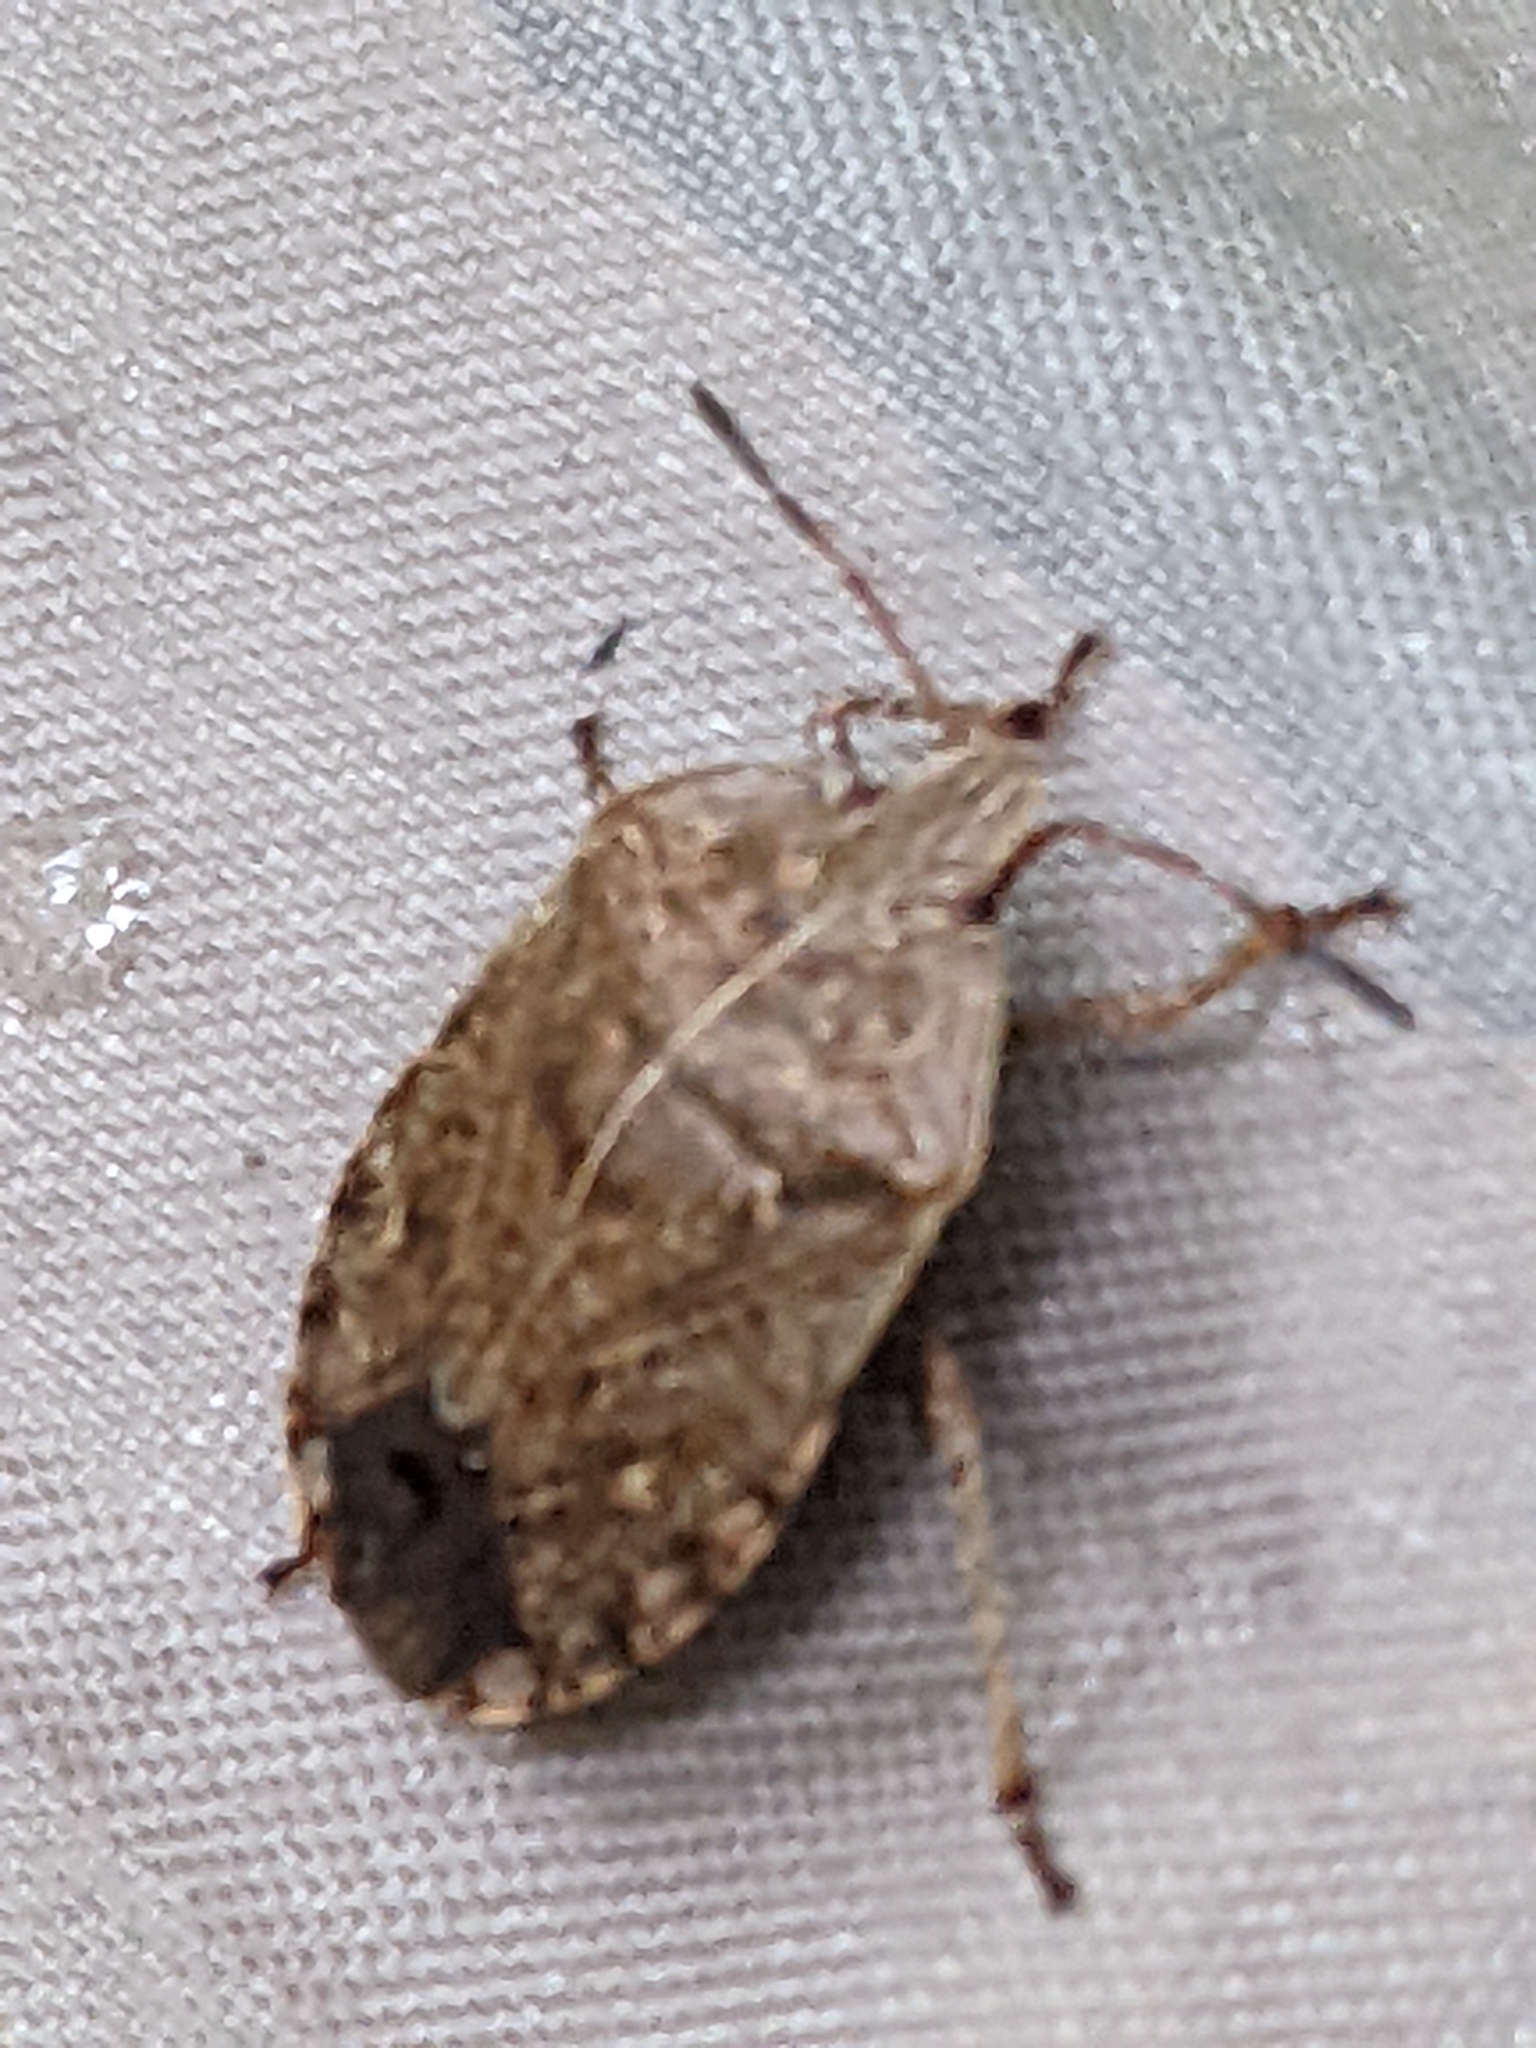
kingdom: Animalia
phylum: Arthropoda
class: Insecta
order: Hemiptera
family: Pentatomidae
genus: Menecles
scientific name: Menecles insertus
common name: Elf shoe stink bug
